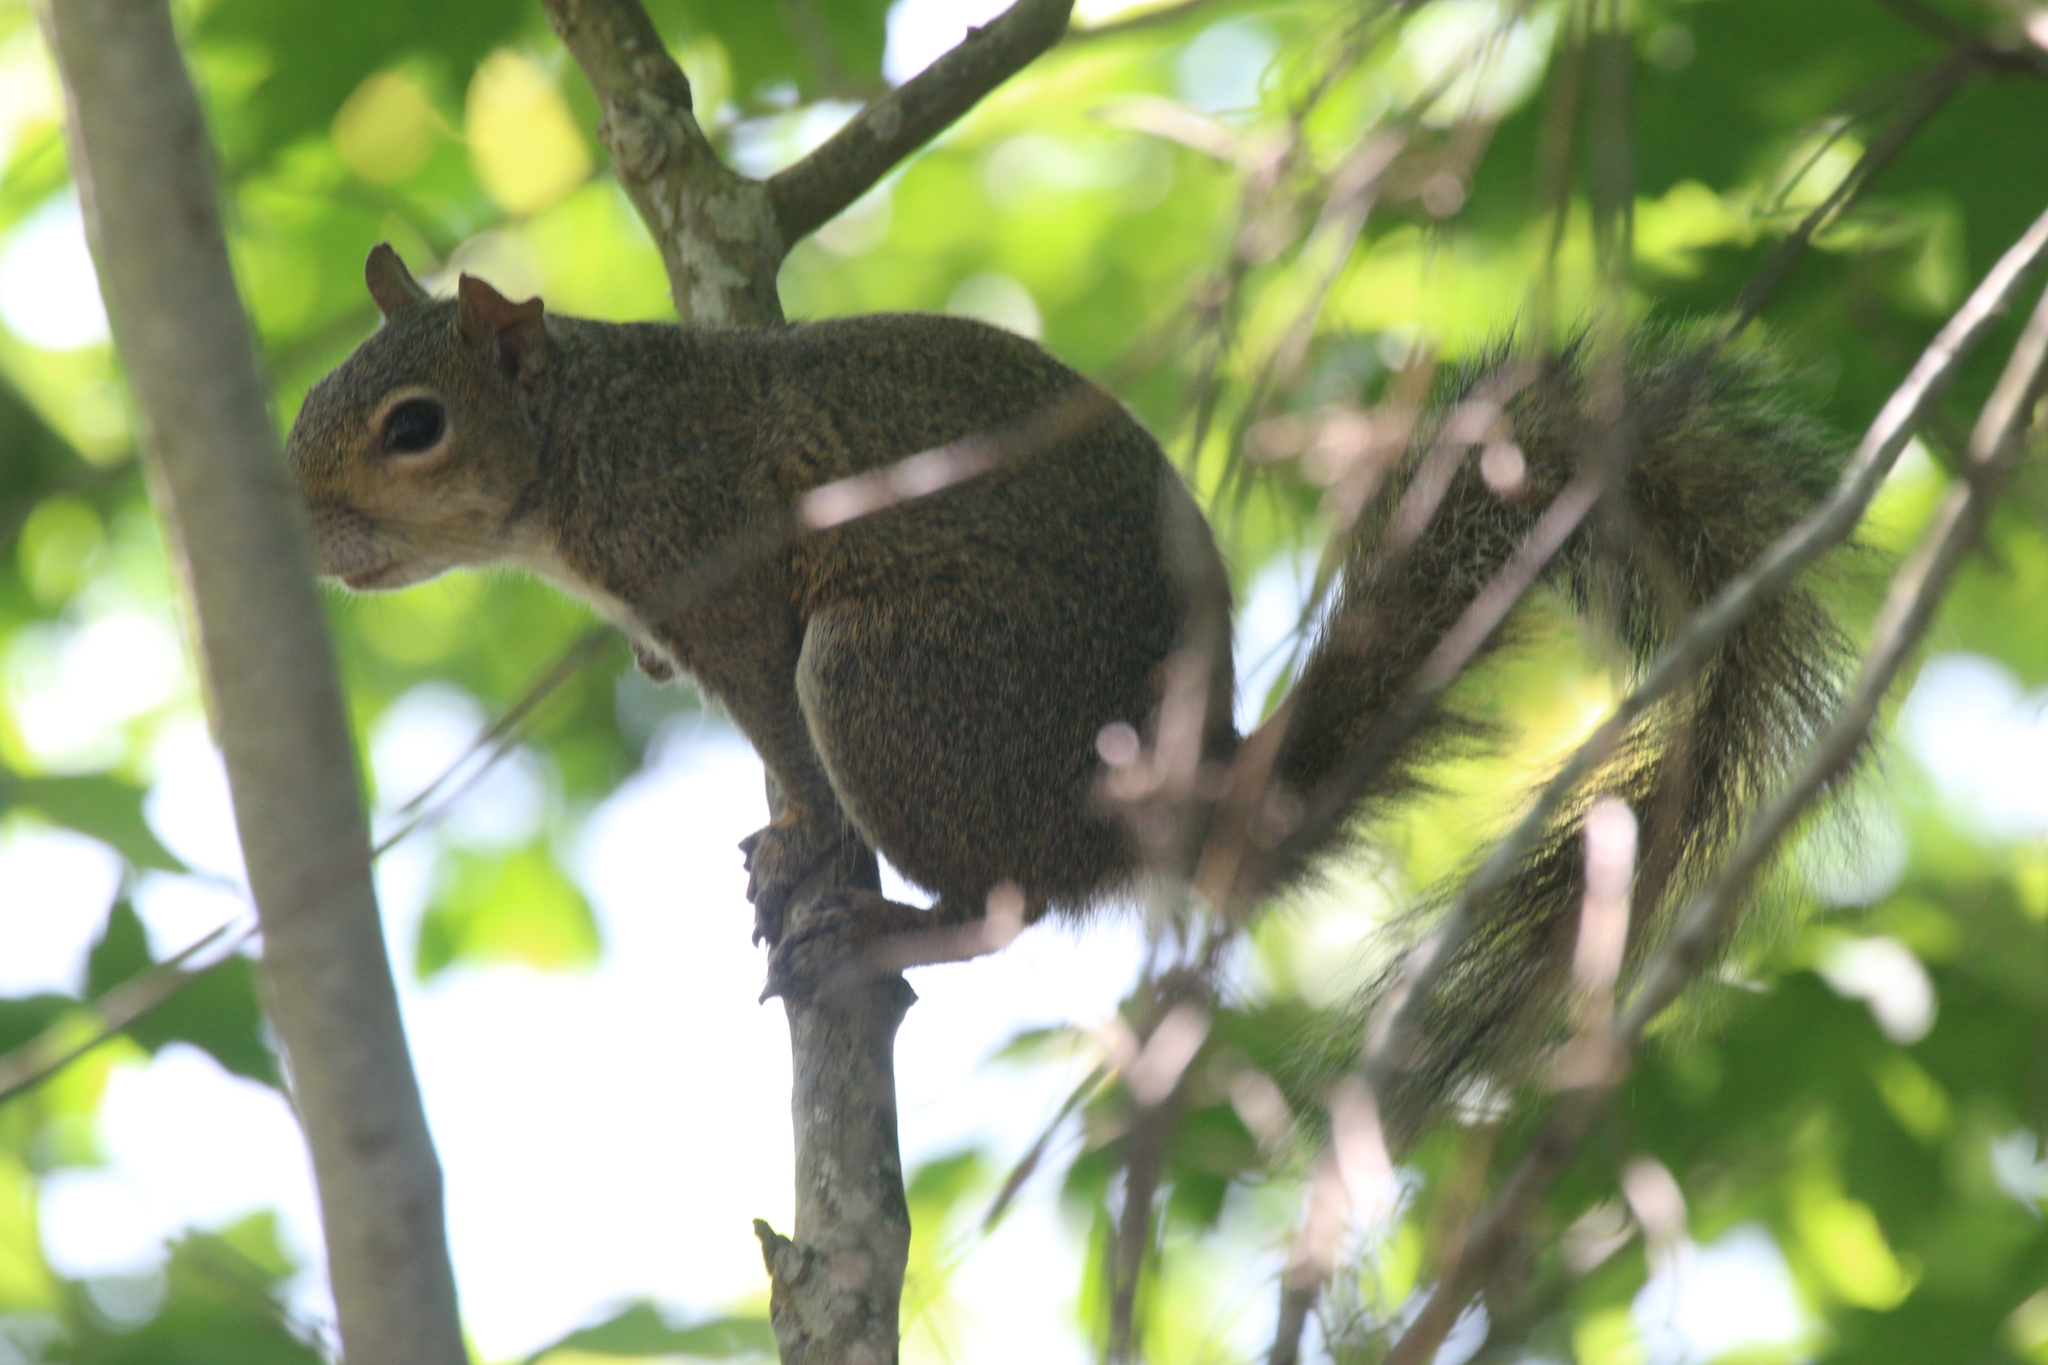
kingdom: Animalia
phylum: Chordata
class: Mammalia
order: Rodentia
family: Sciuridae
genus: Sciurus
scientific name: Sciurus carolinensis
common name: Eastern gray squirrel
